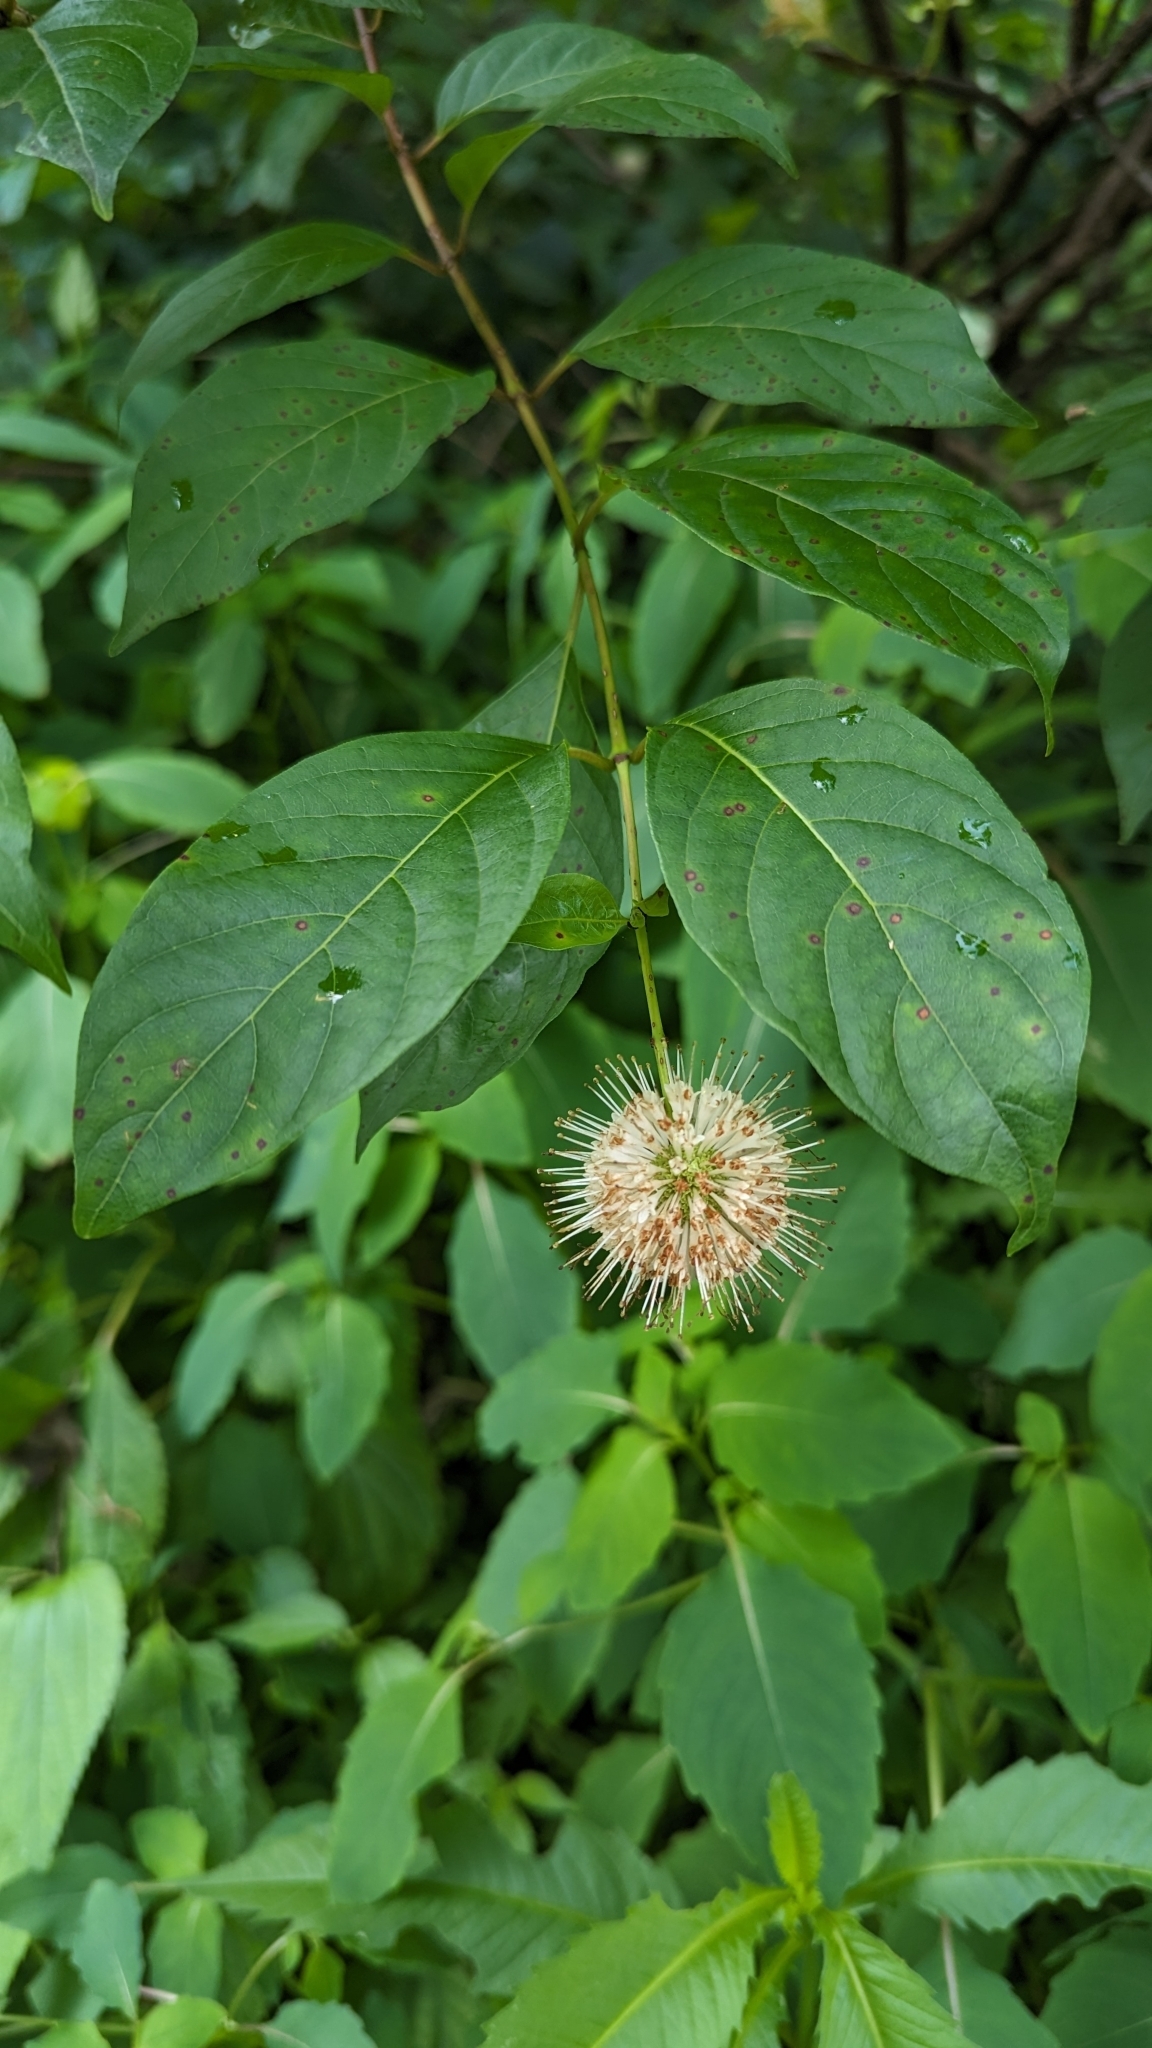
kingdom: Plantae
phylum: Tracheophyta
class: Magnoliopsida
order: Gentianales
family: Rubiaceae
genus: Cephalanthus
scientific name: Cephalanthus occidentalis
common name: Button-willow
